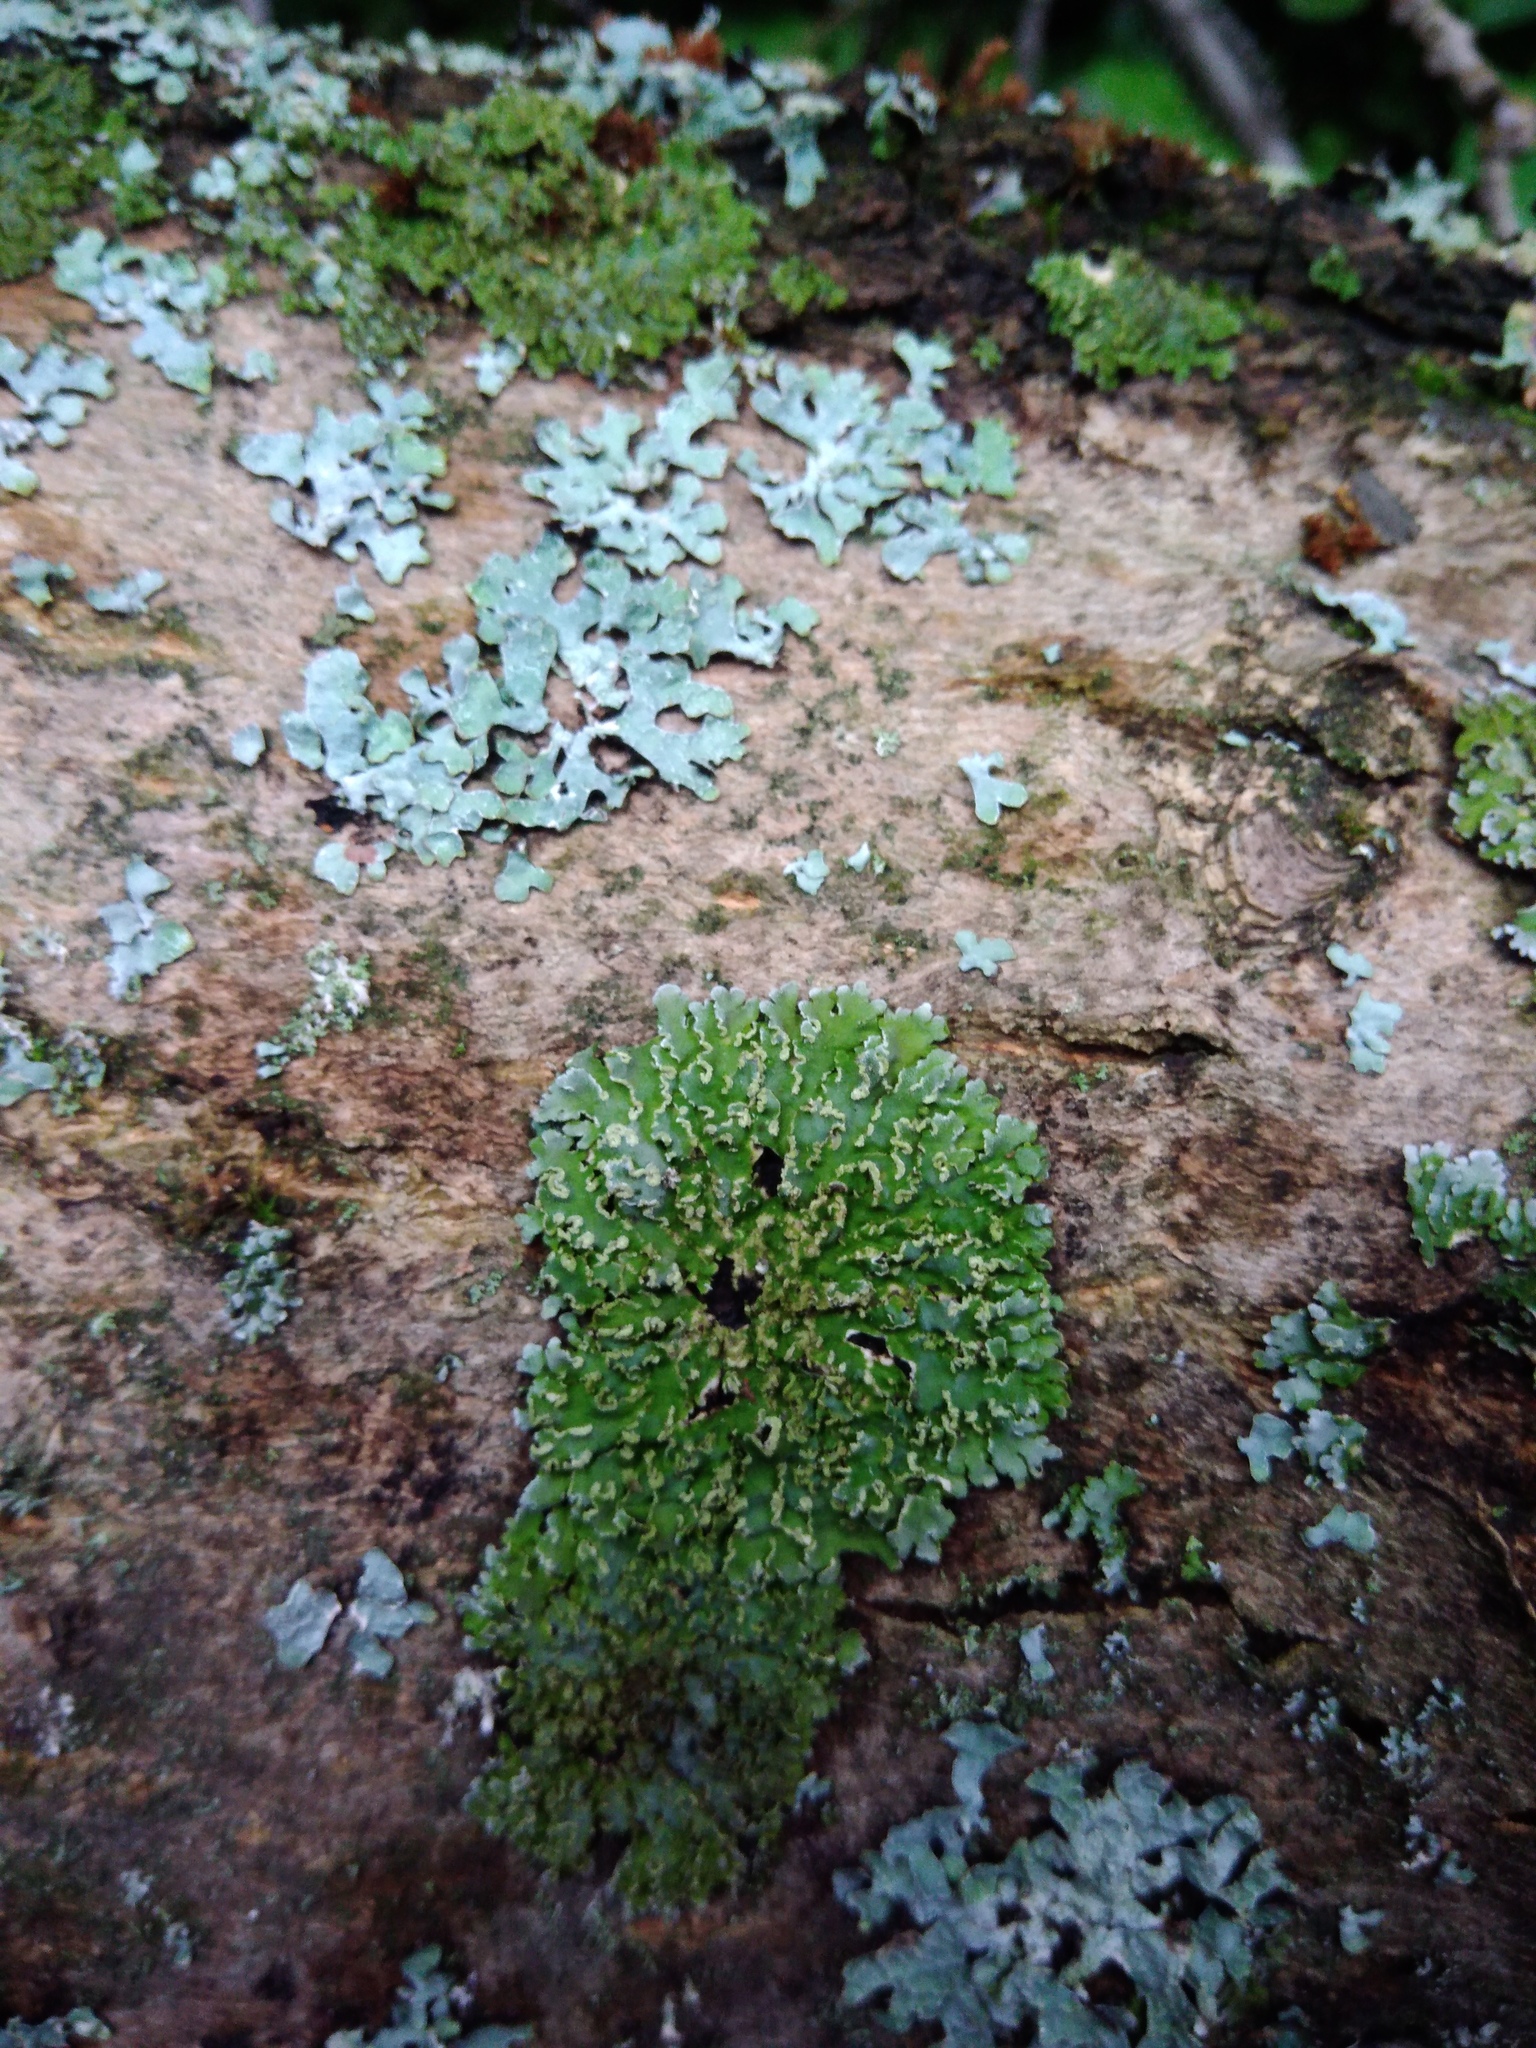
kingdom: Fungi
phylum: Ascomycota
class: Lecanoromycetes
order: Caliciales
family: Physciaceae
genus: Poeltonia
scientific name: Poeltonia grisea
